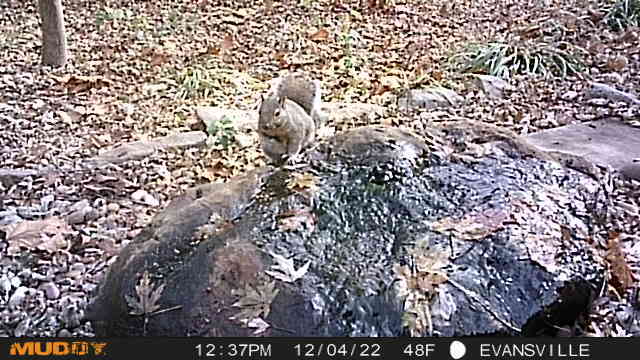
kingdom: Animalia
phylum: Chordata
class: Mammalia
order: Rodentia
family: Sciuridae
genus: Sciurus
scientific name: Sciurus carolinensis
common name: Eastern gray squirrel
